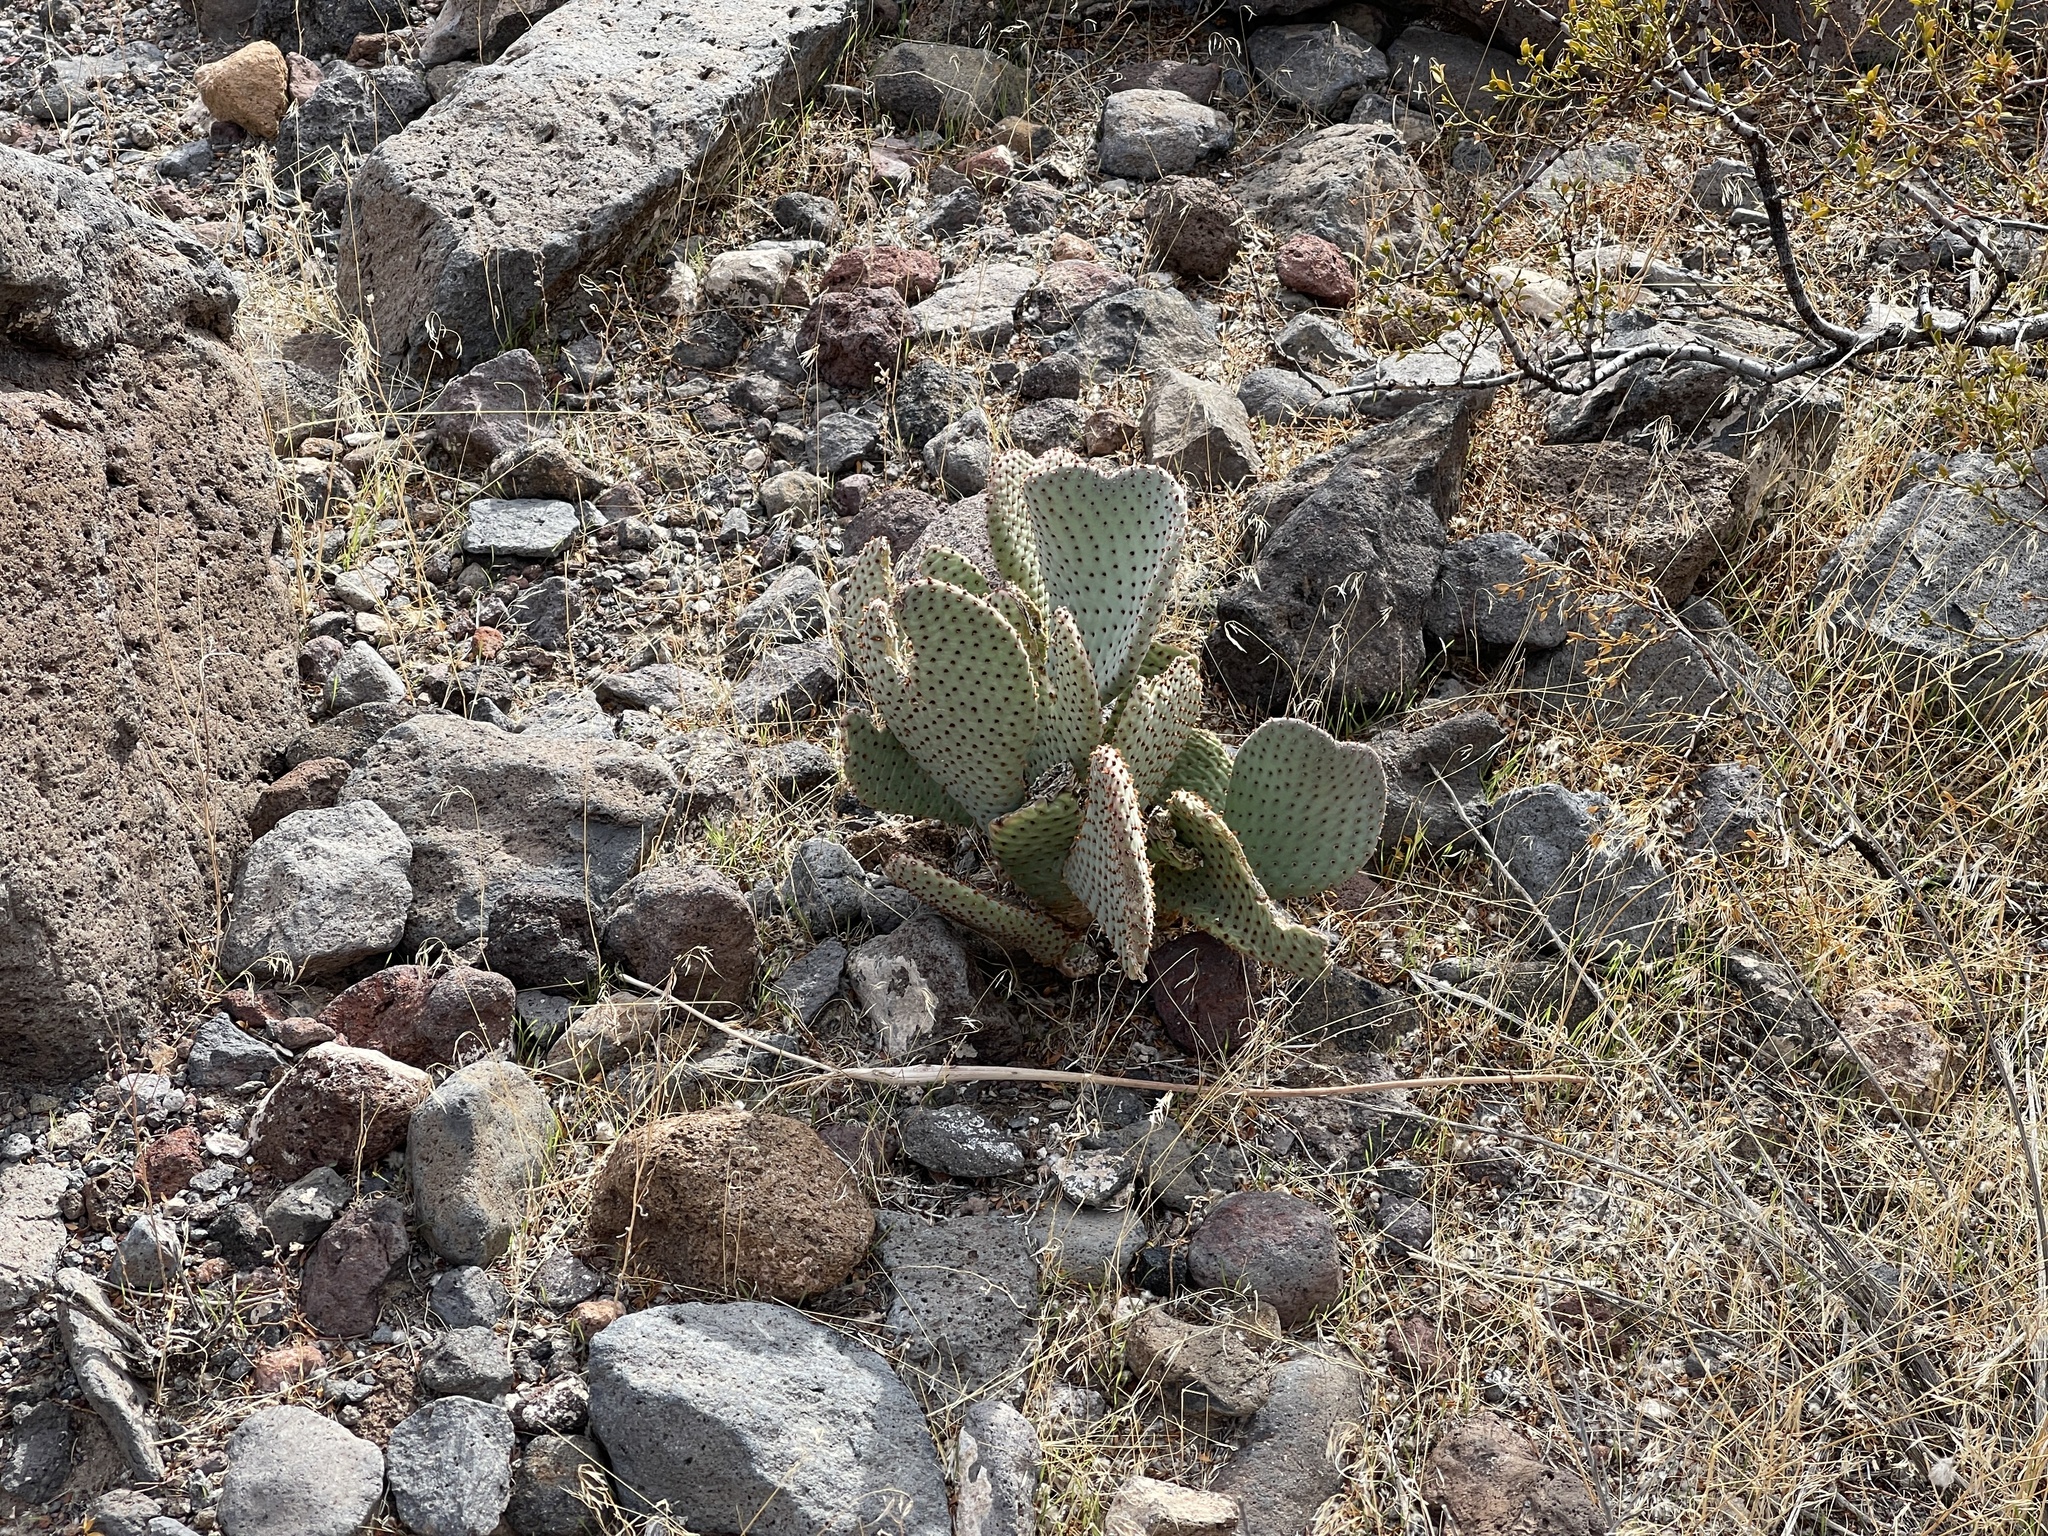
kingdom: Plantae
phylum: Tracheophyta
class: Magnoliopsida
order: Caryophyllales
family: Cactaceae
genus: Opuntia
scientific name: Opuntia basilaris
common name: Beavertail prickly-pear
